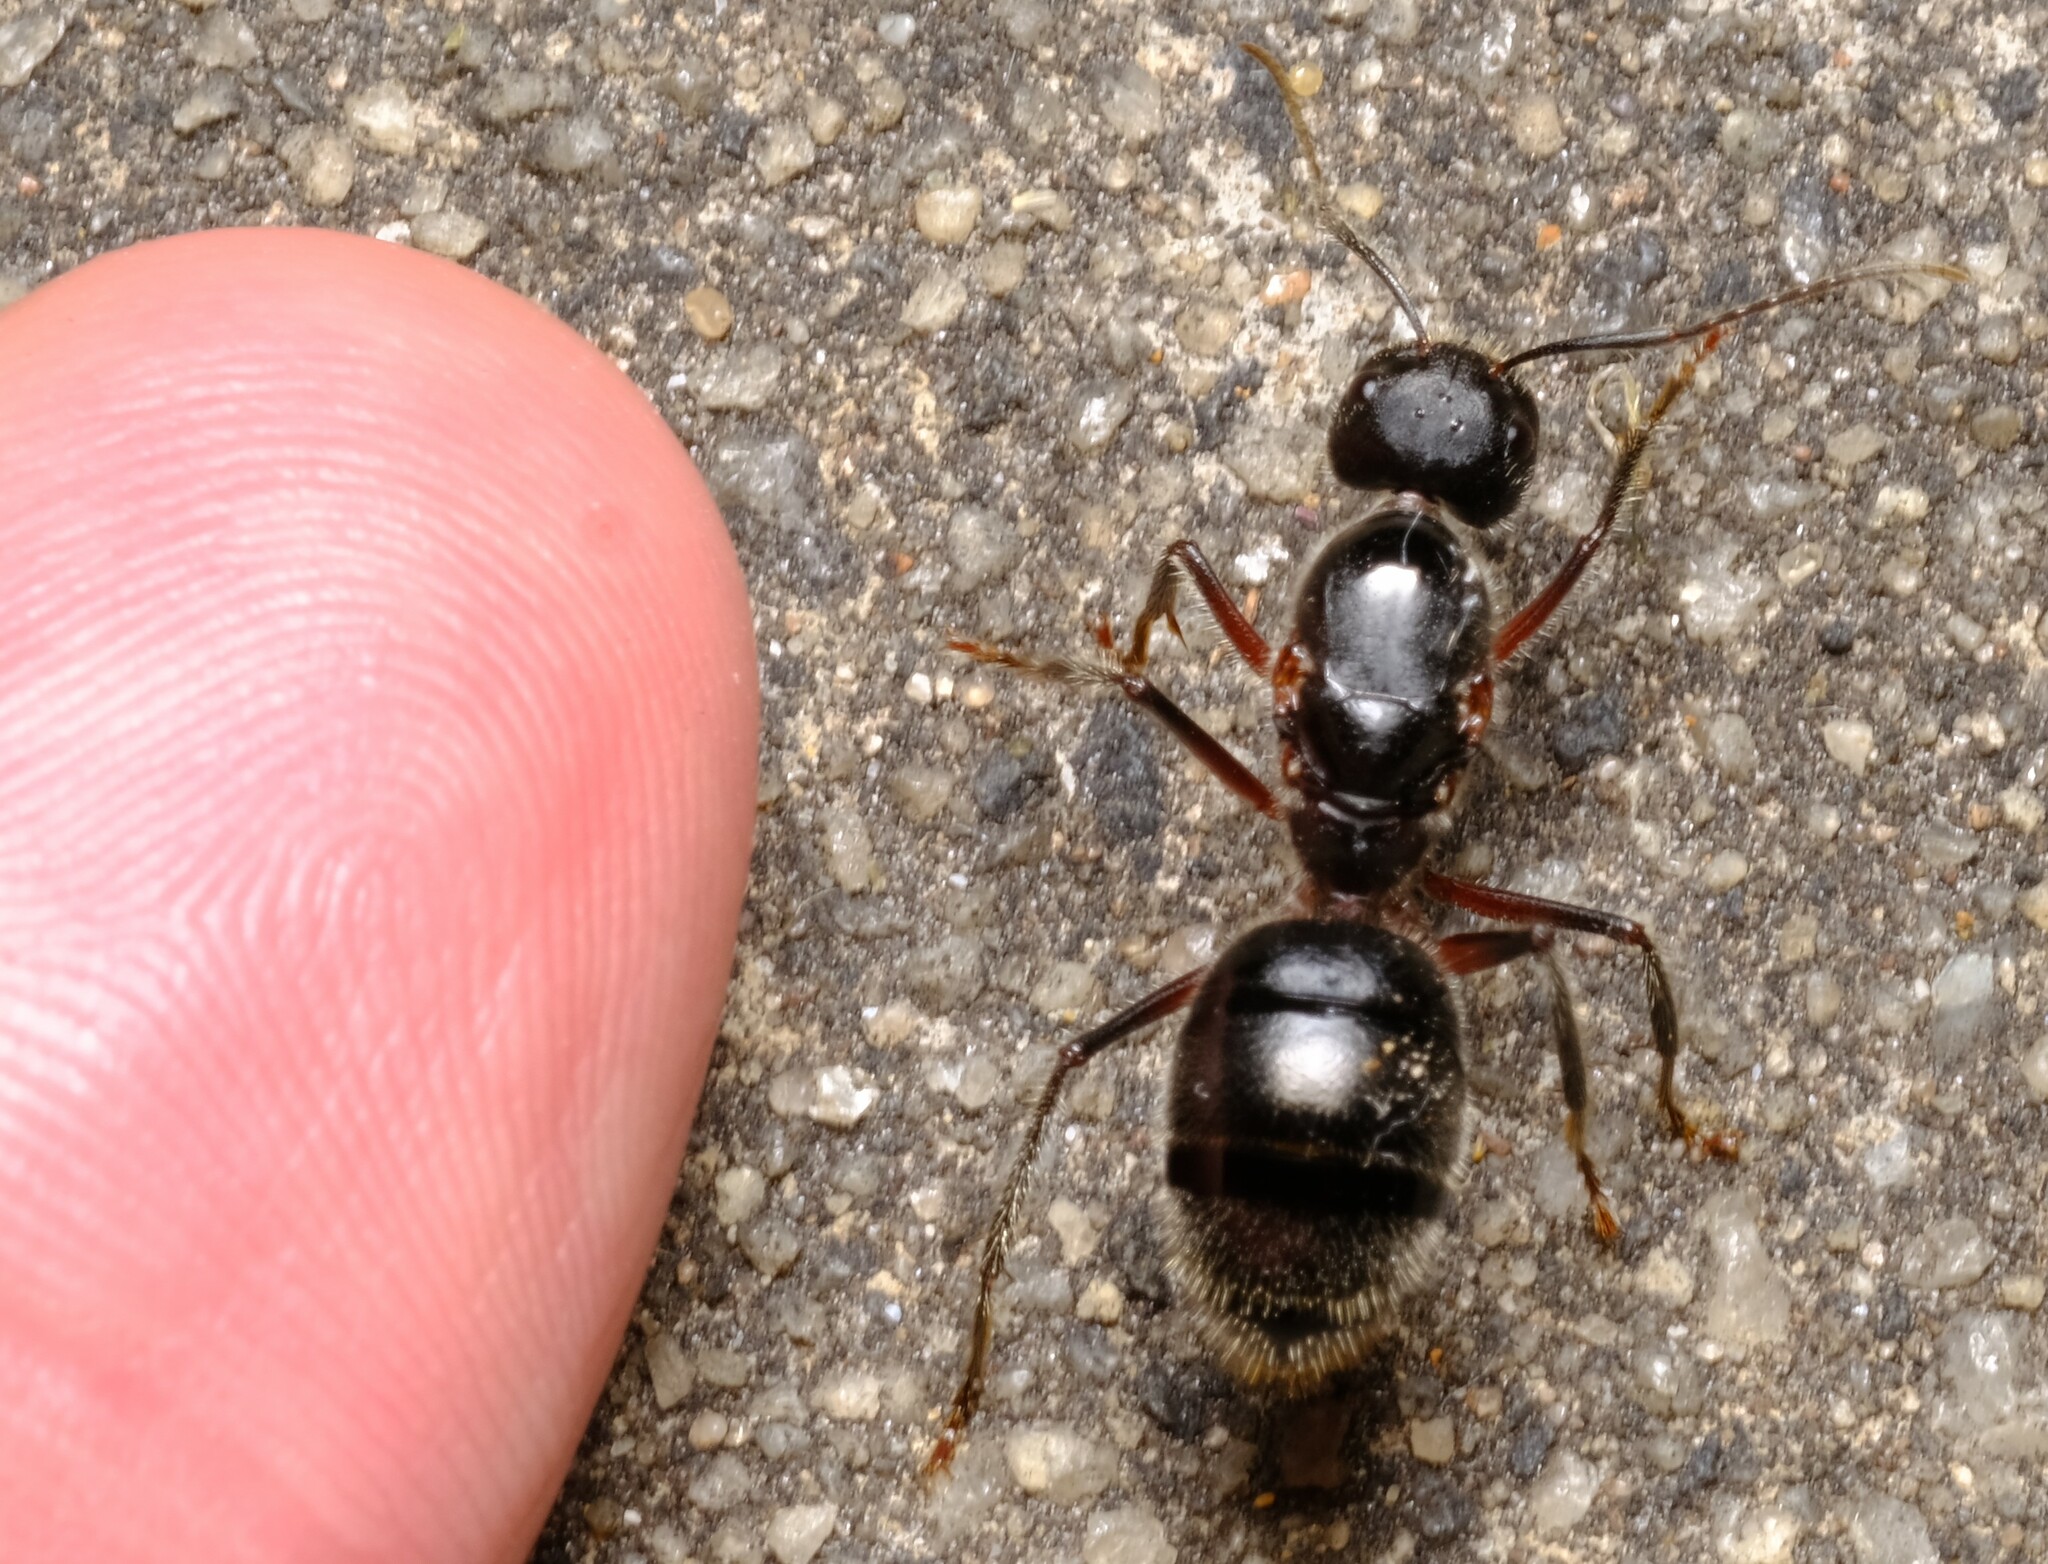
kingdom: Animalia
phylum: Arthropoda
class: Insecta
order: Hymenoptera
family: Formicidae
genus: Camponotus
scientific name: Camponotus intrepidus
